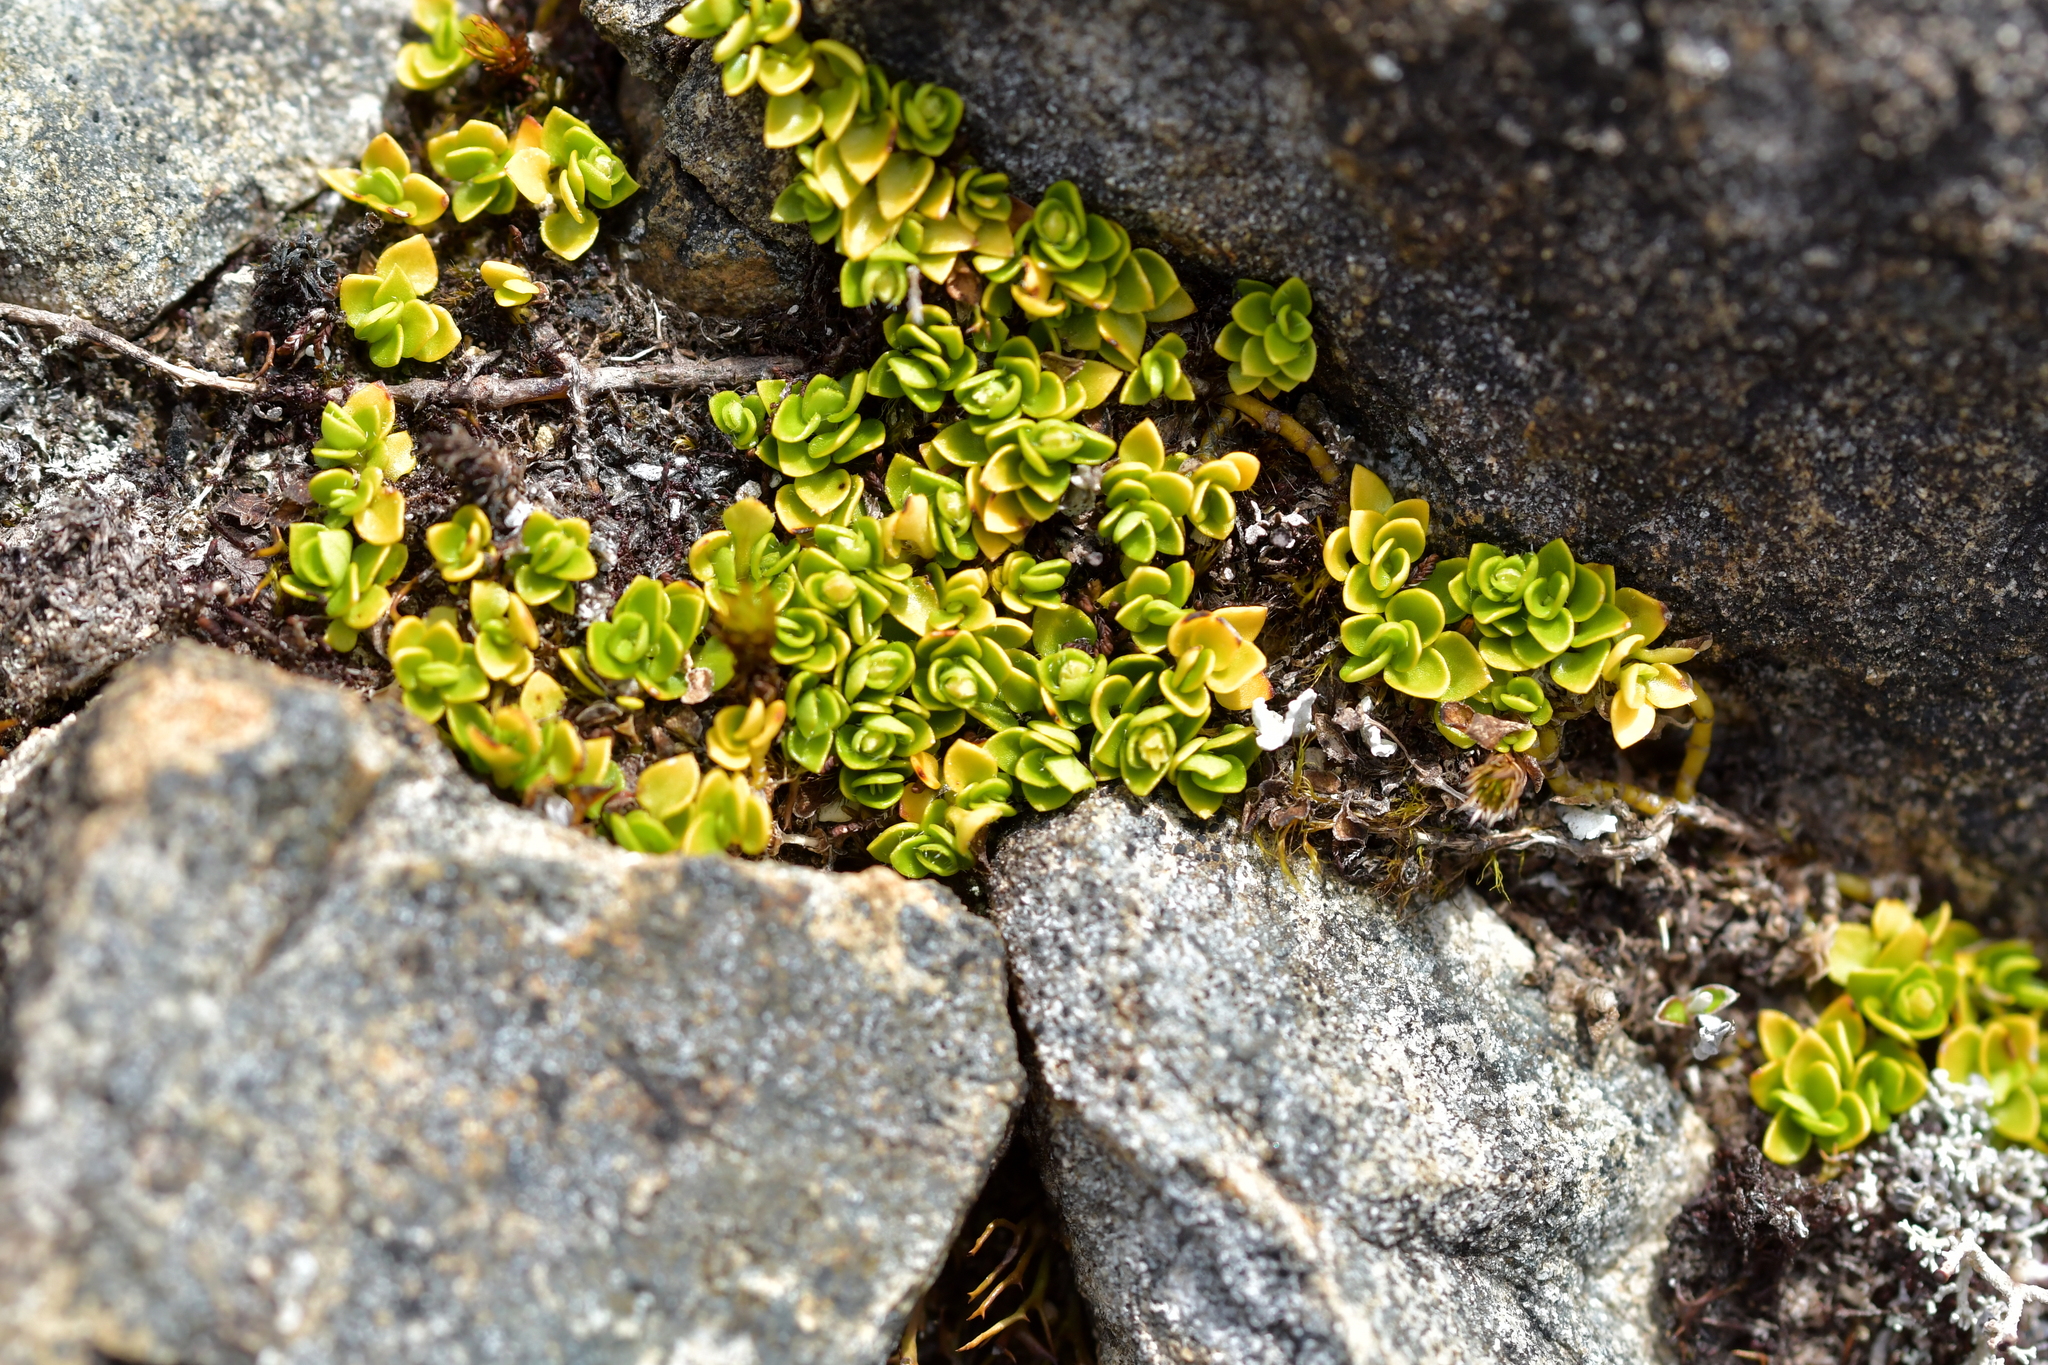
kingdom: Plantae
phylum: Tracheophyta
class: Magnoliopsida
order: Gentianales
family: Rubiaceae
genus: Nertera
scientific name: Nertera ciliata
